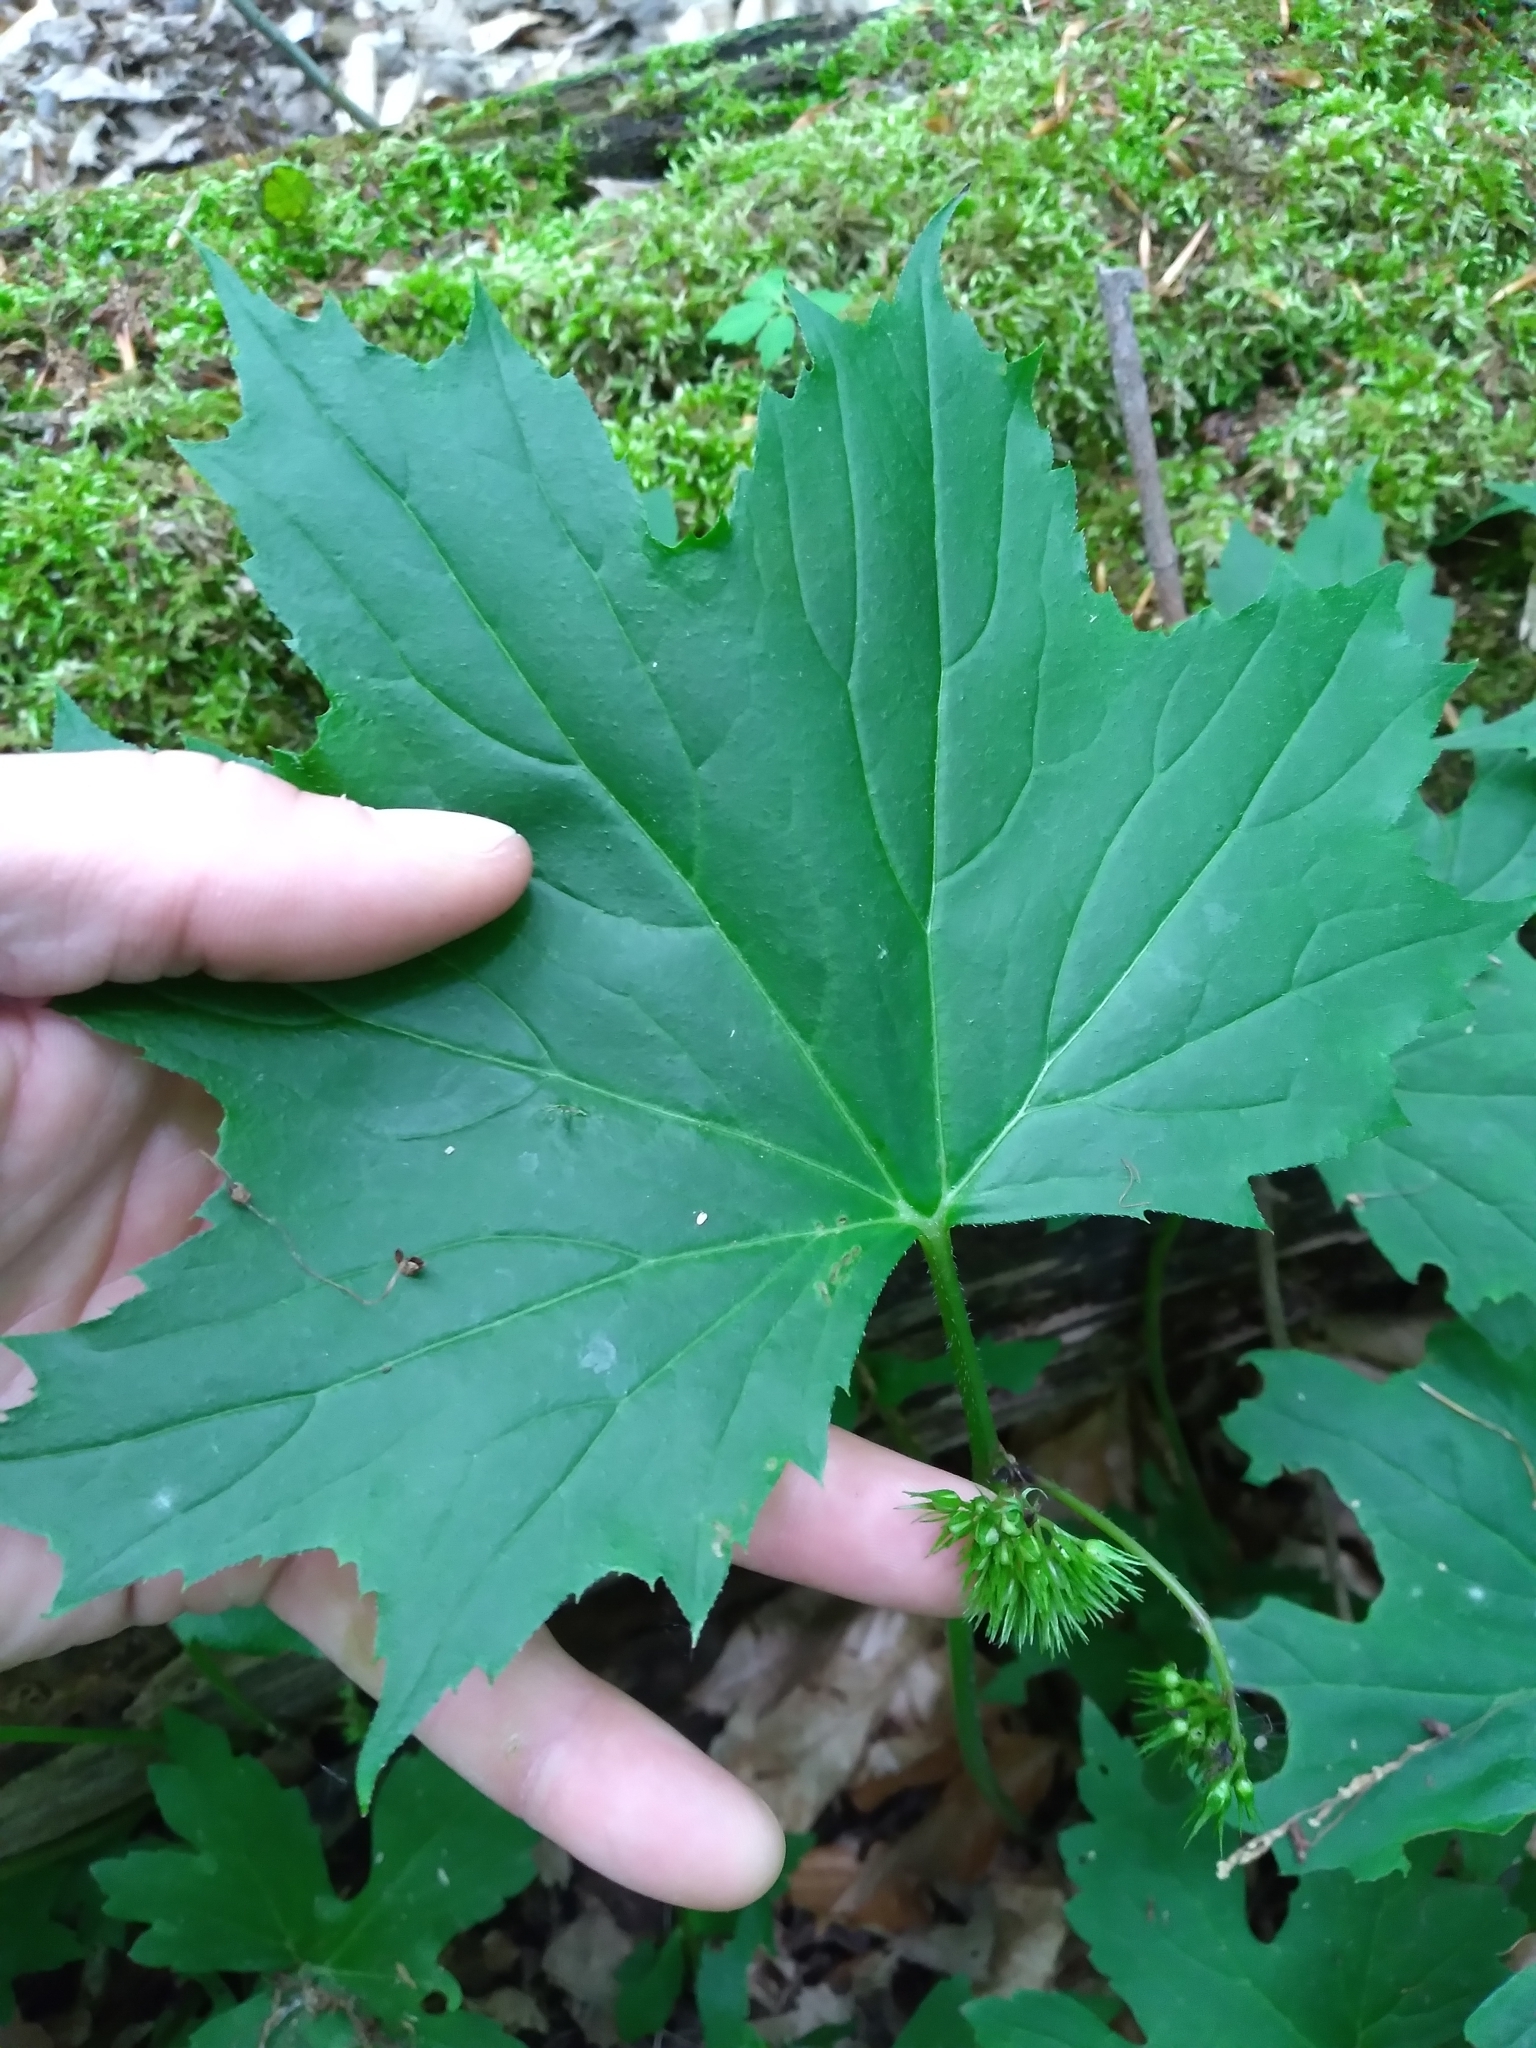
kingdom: Plantae
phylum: Tracheophyta
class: Magnoliopsida
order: Boraginales
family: Hydrophyllaceae
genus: Hydrophyllum
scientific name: Hydrophyllum canadense
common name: Canada waterleaf
